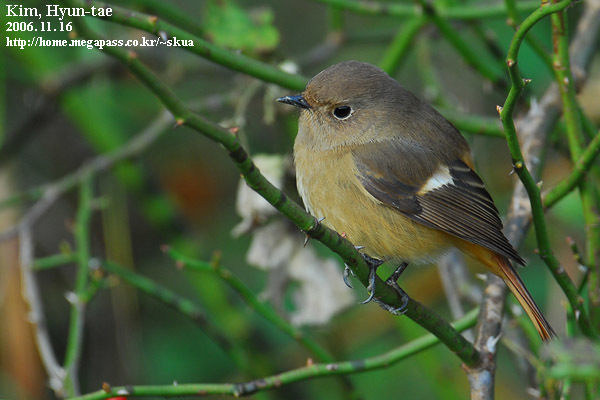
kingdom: Animalia
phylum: Chordata
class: Aves
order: Passeriformes
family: Muscicapidae
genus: Phoenicurus
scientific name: Phoenicurus auroreus
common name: Daurian redstart
